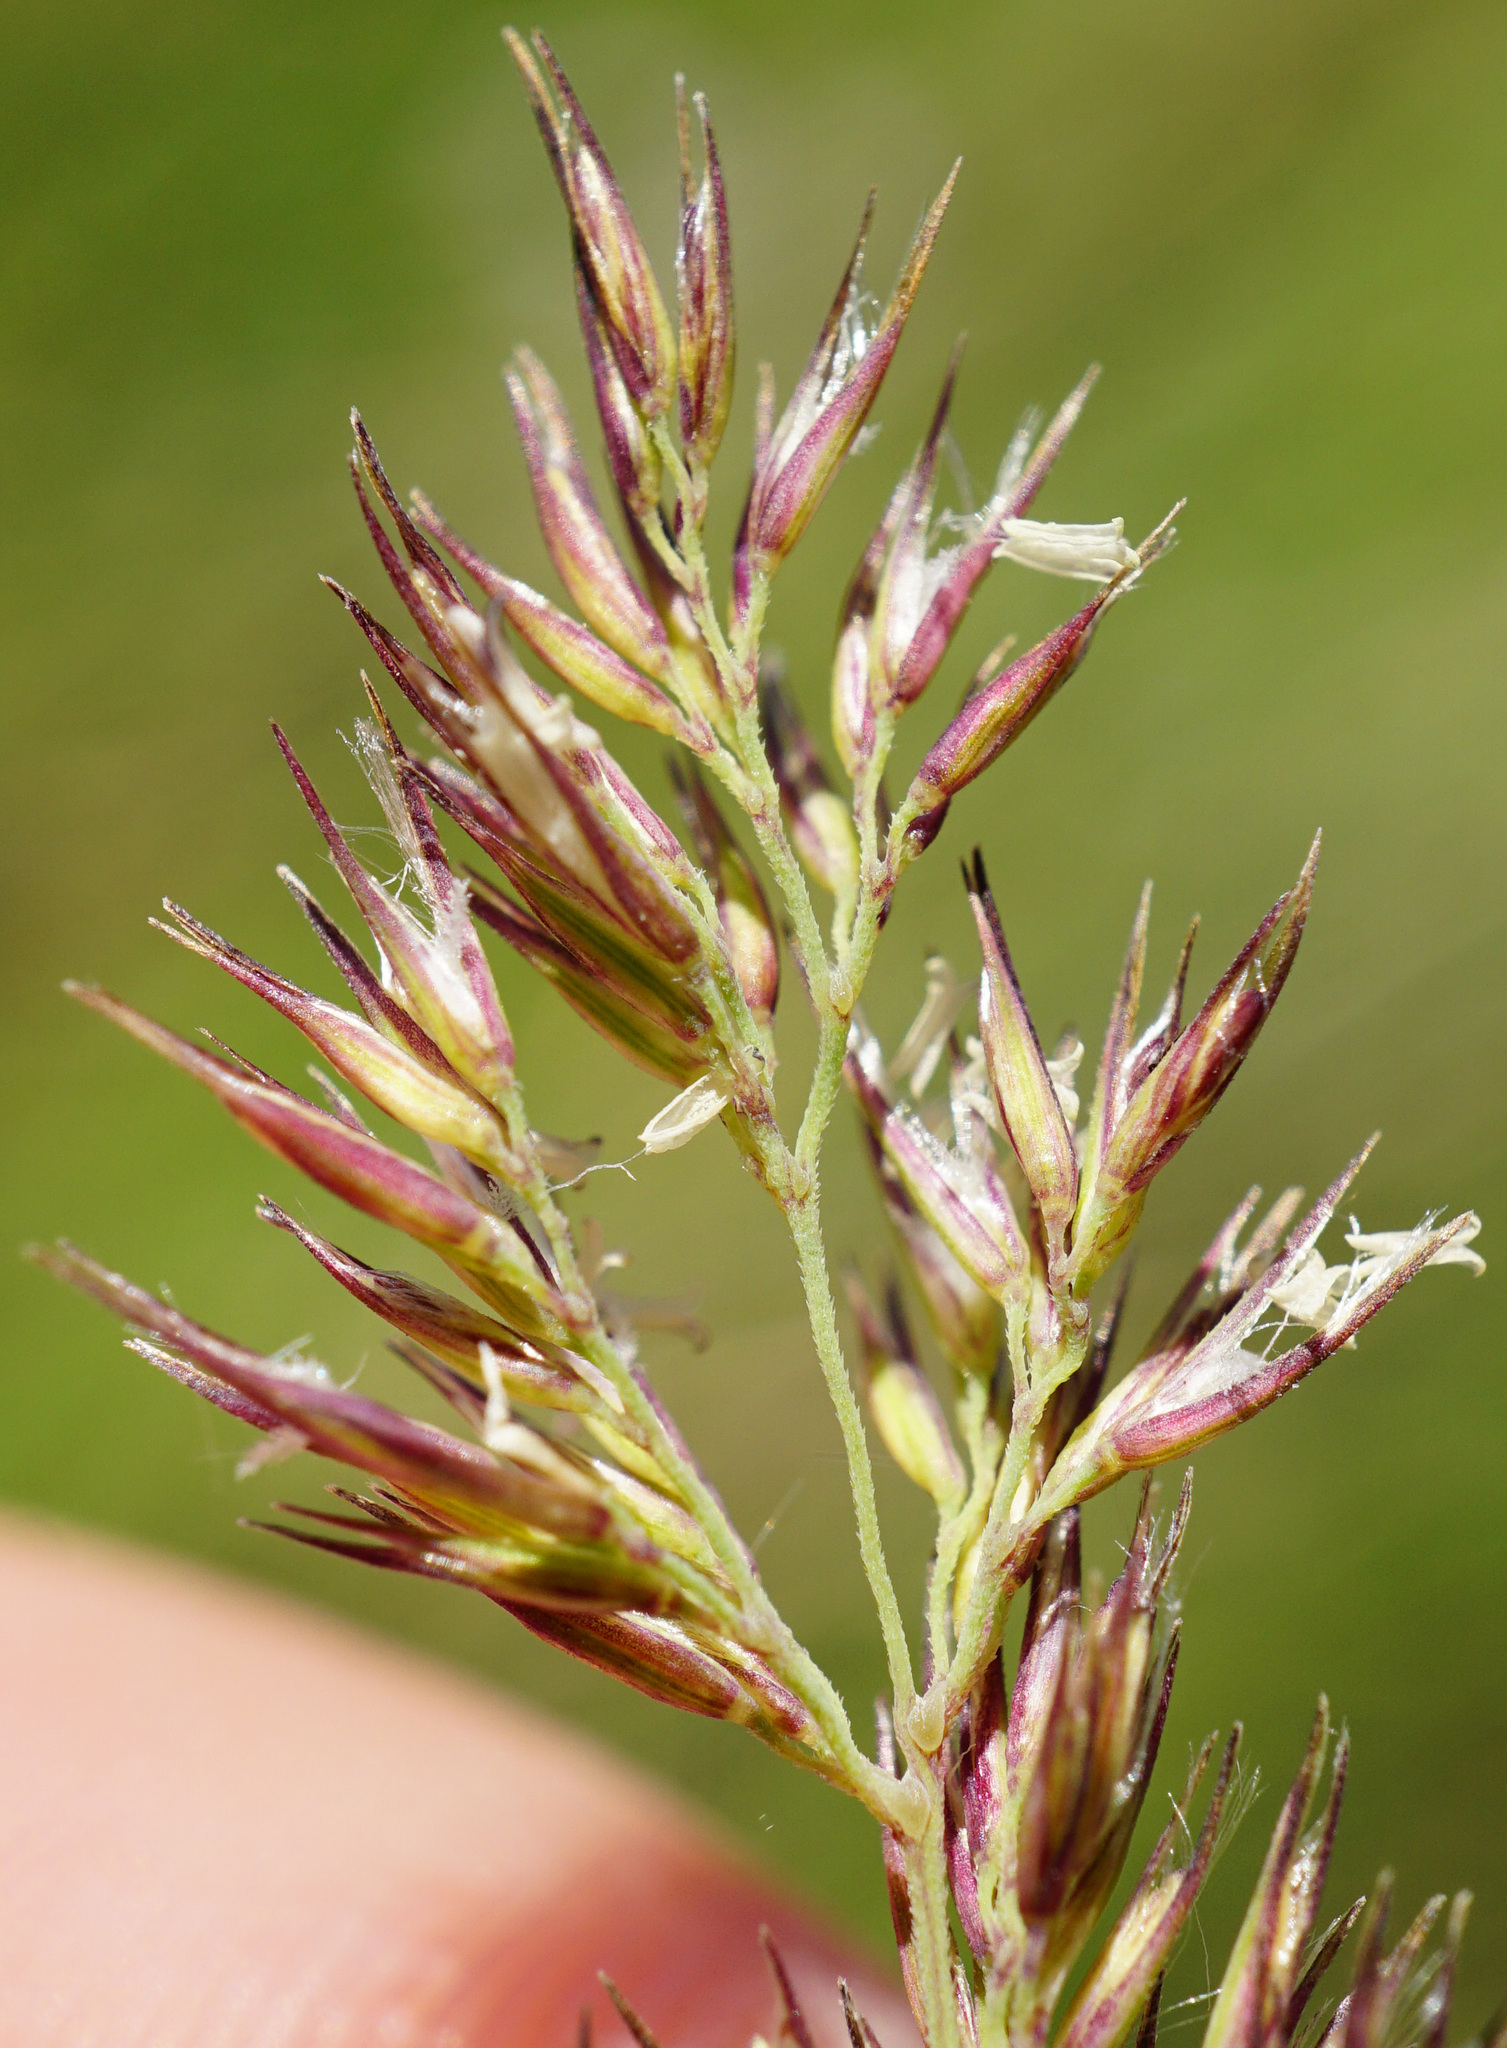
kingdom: Plantae
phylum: Tracheophyta
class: Liliopsida
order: Poales
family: Poaceae
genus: Calamagrostis
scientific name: Calamagrostis epigejos
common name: Wood small-reed
